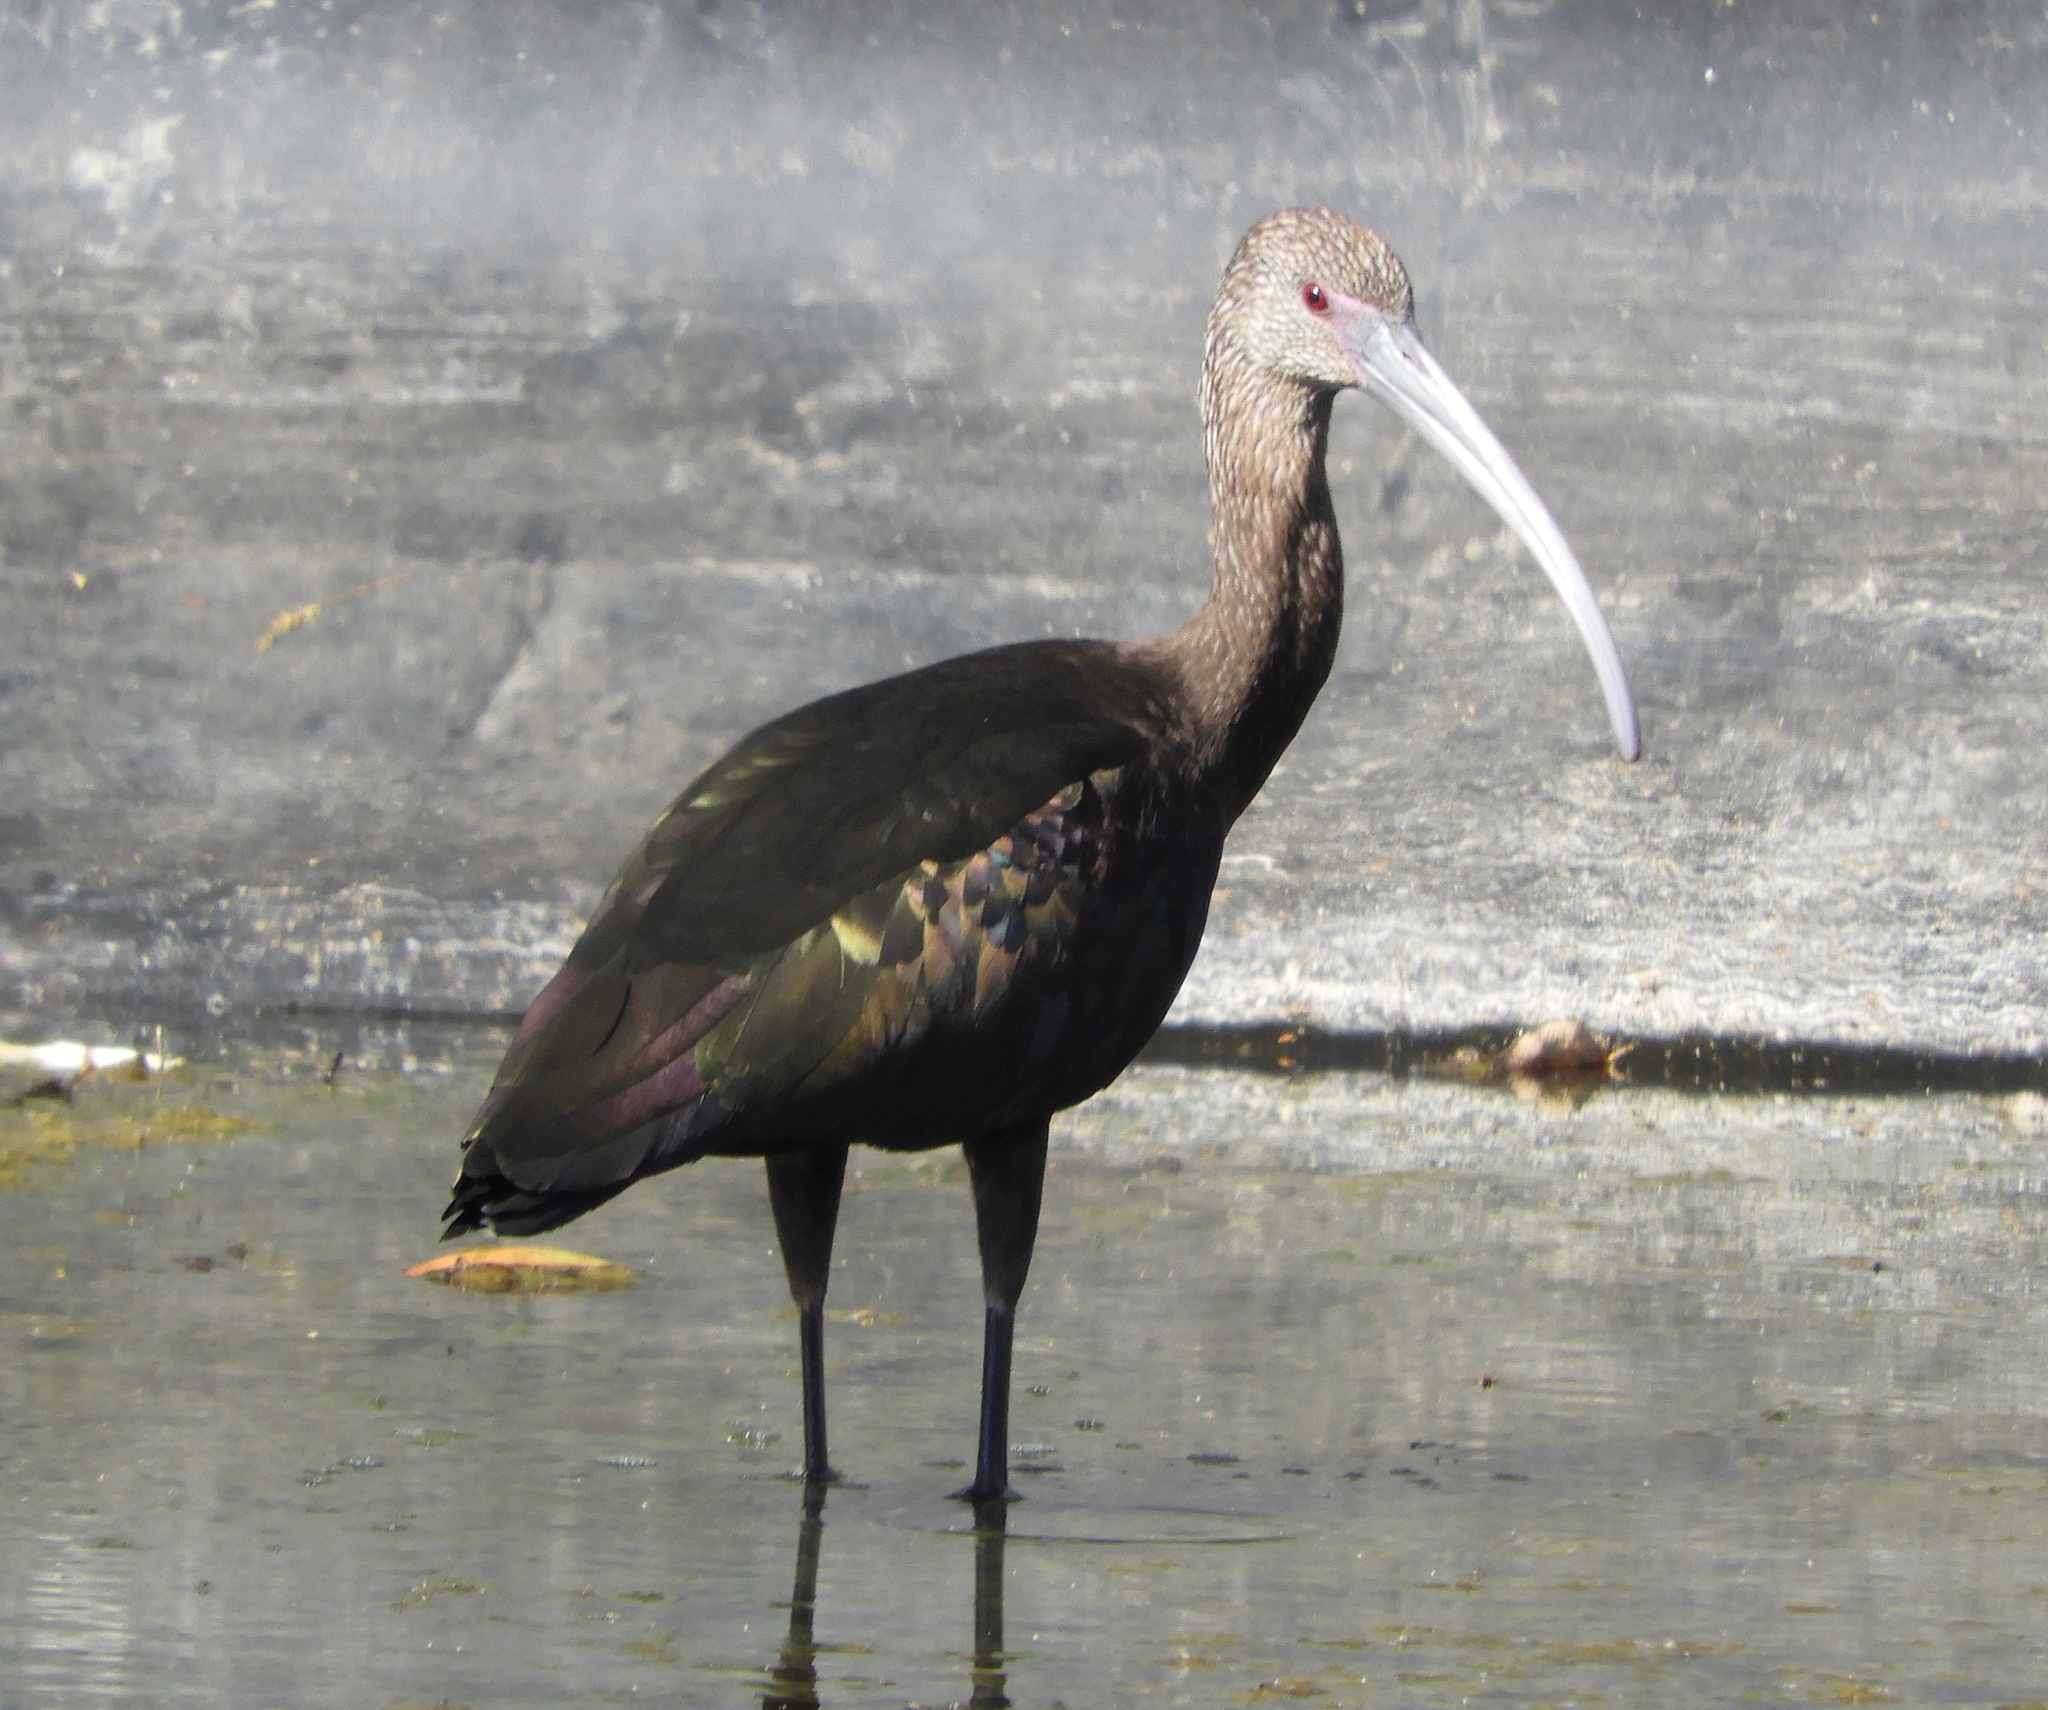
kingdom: Animalia
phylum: Chordata
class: Aves
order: Pelecaniformes
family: Threskiornithidae
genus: Plegadis
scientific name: Plegadis chihi
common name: White-faced ibis
